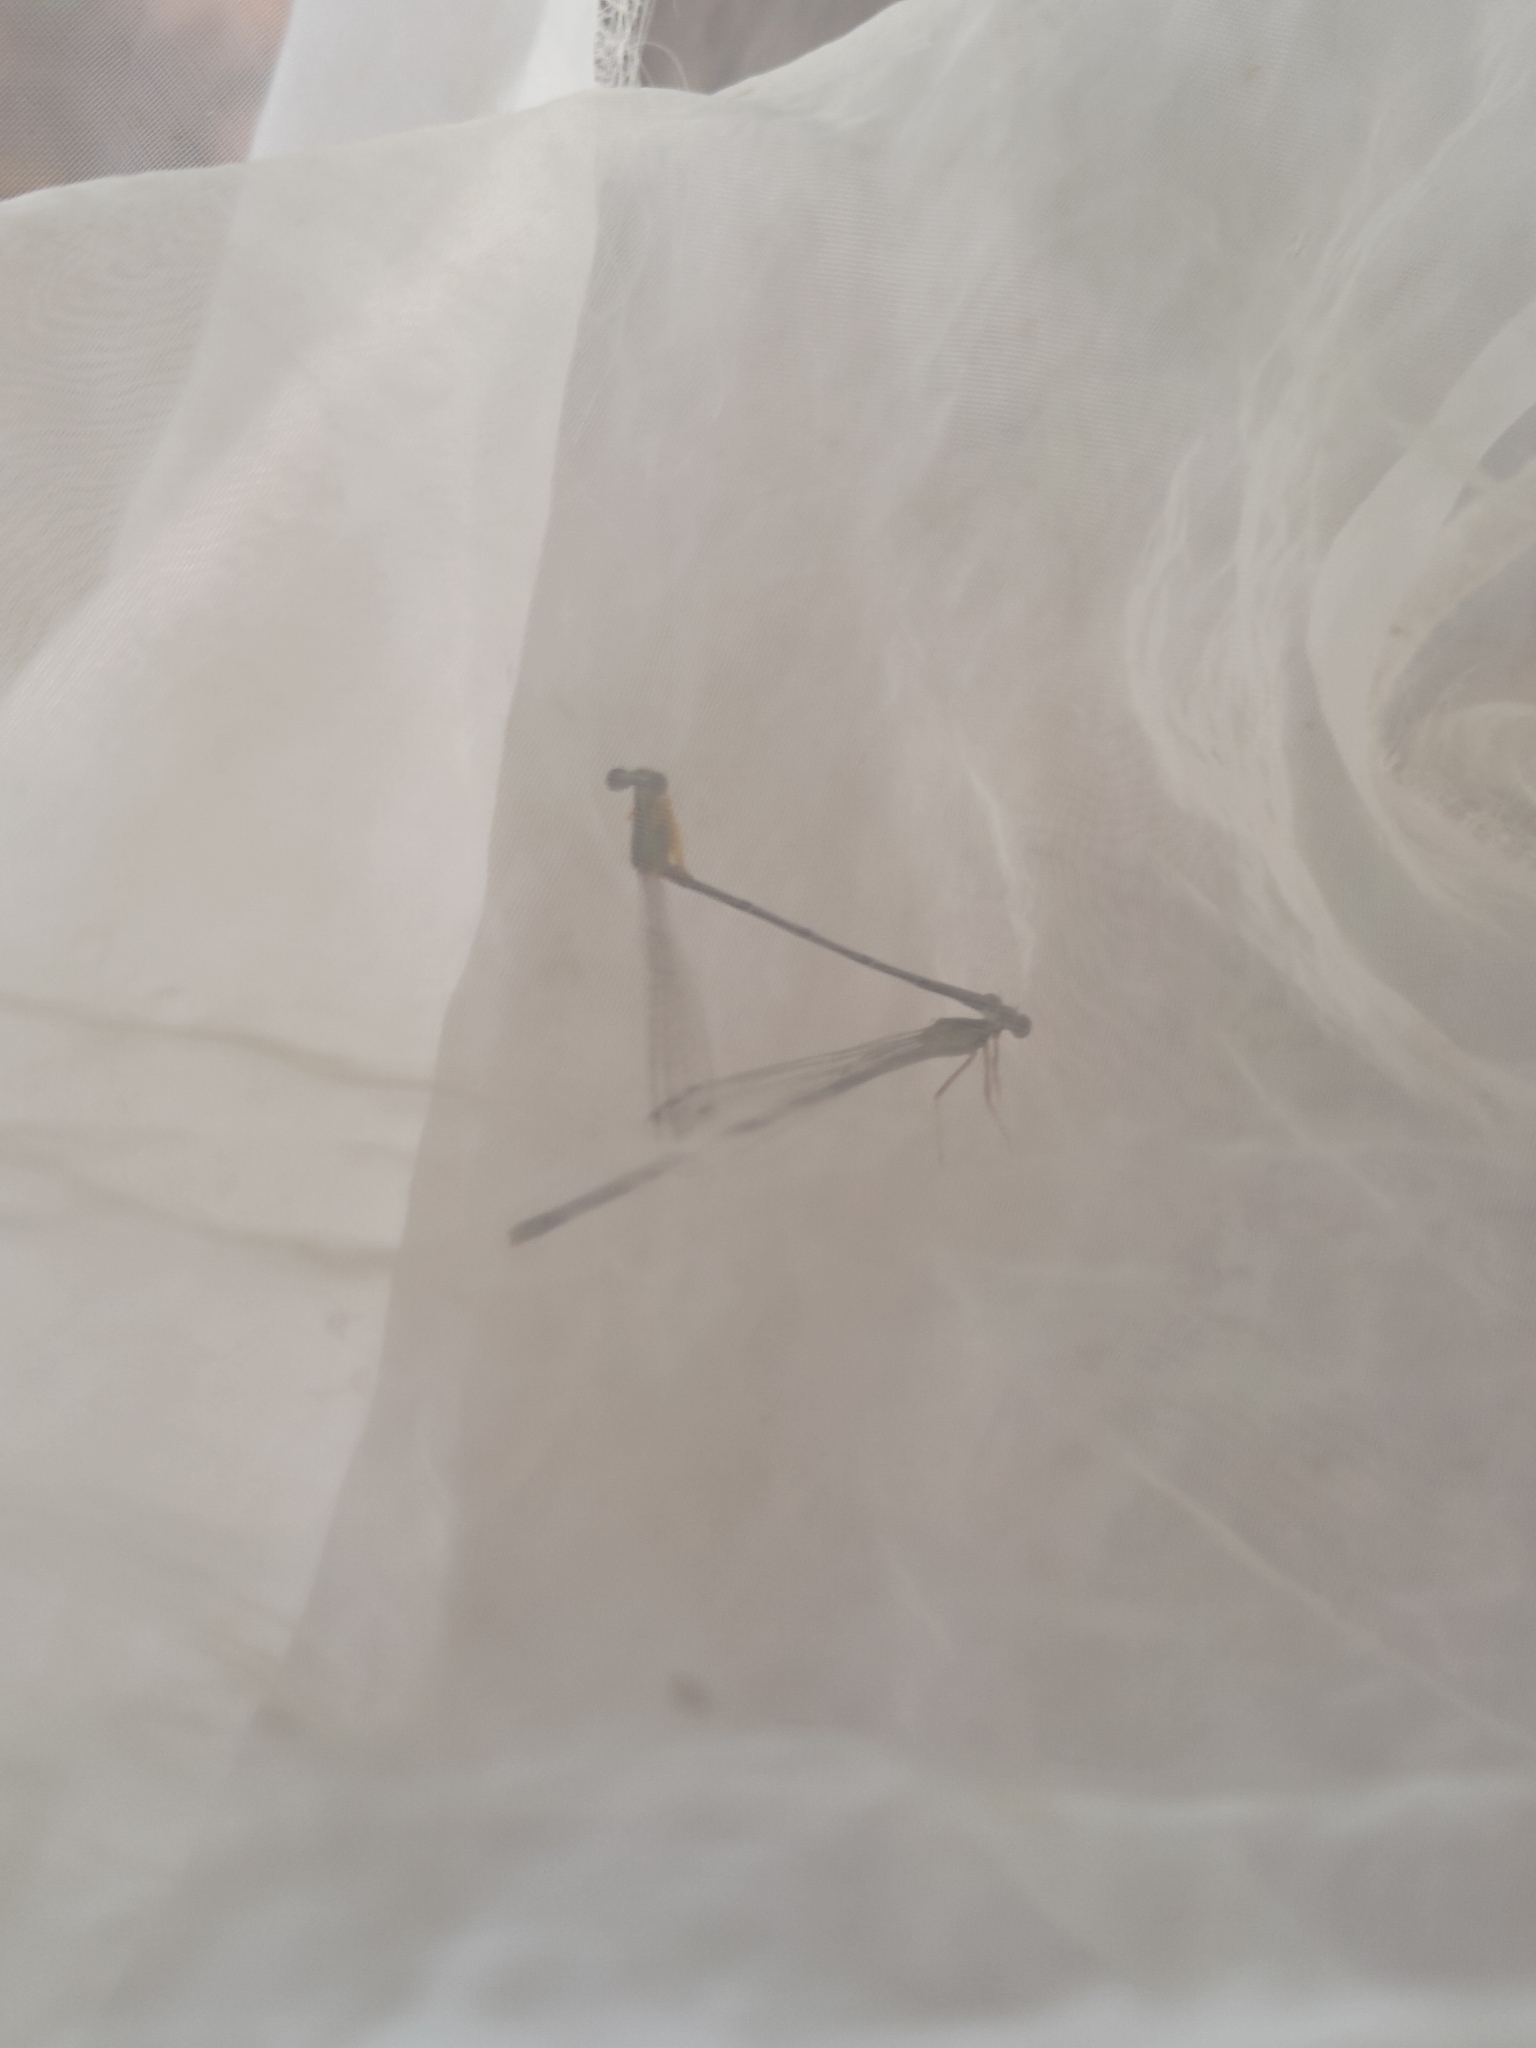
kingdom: Animalia
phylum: Arthropoda
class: Insecta
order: Odonata
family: Platycnemididae
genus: Copera
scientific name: Copera marginipes
